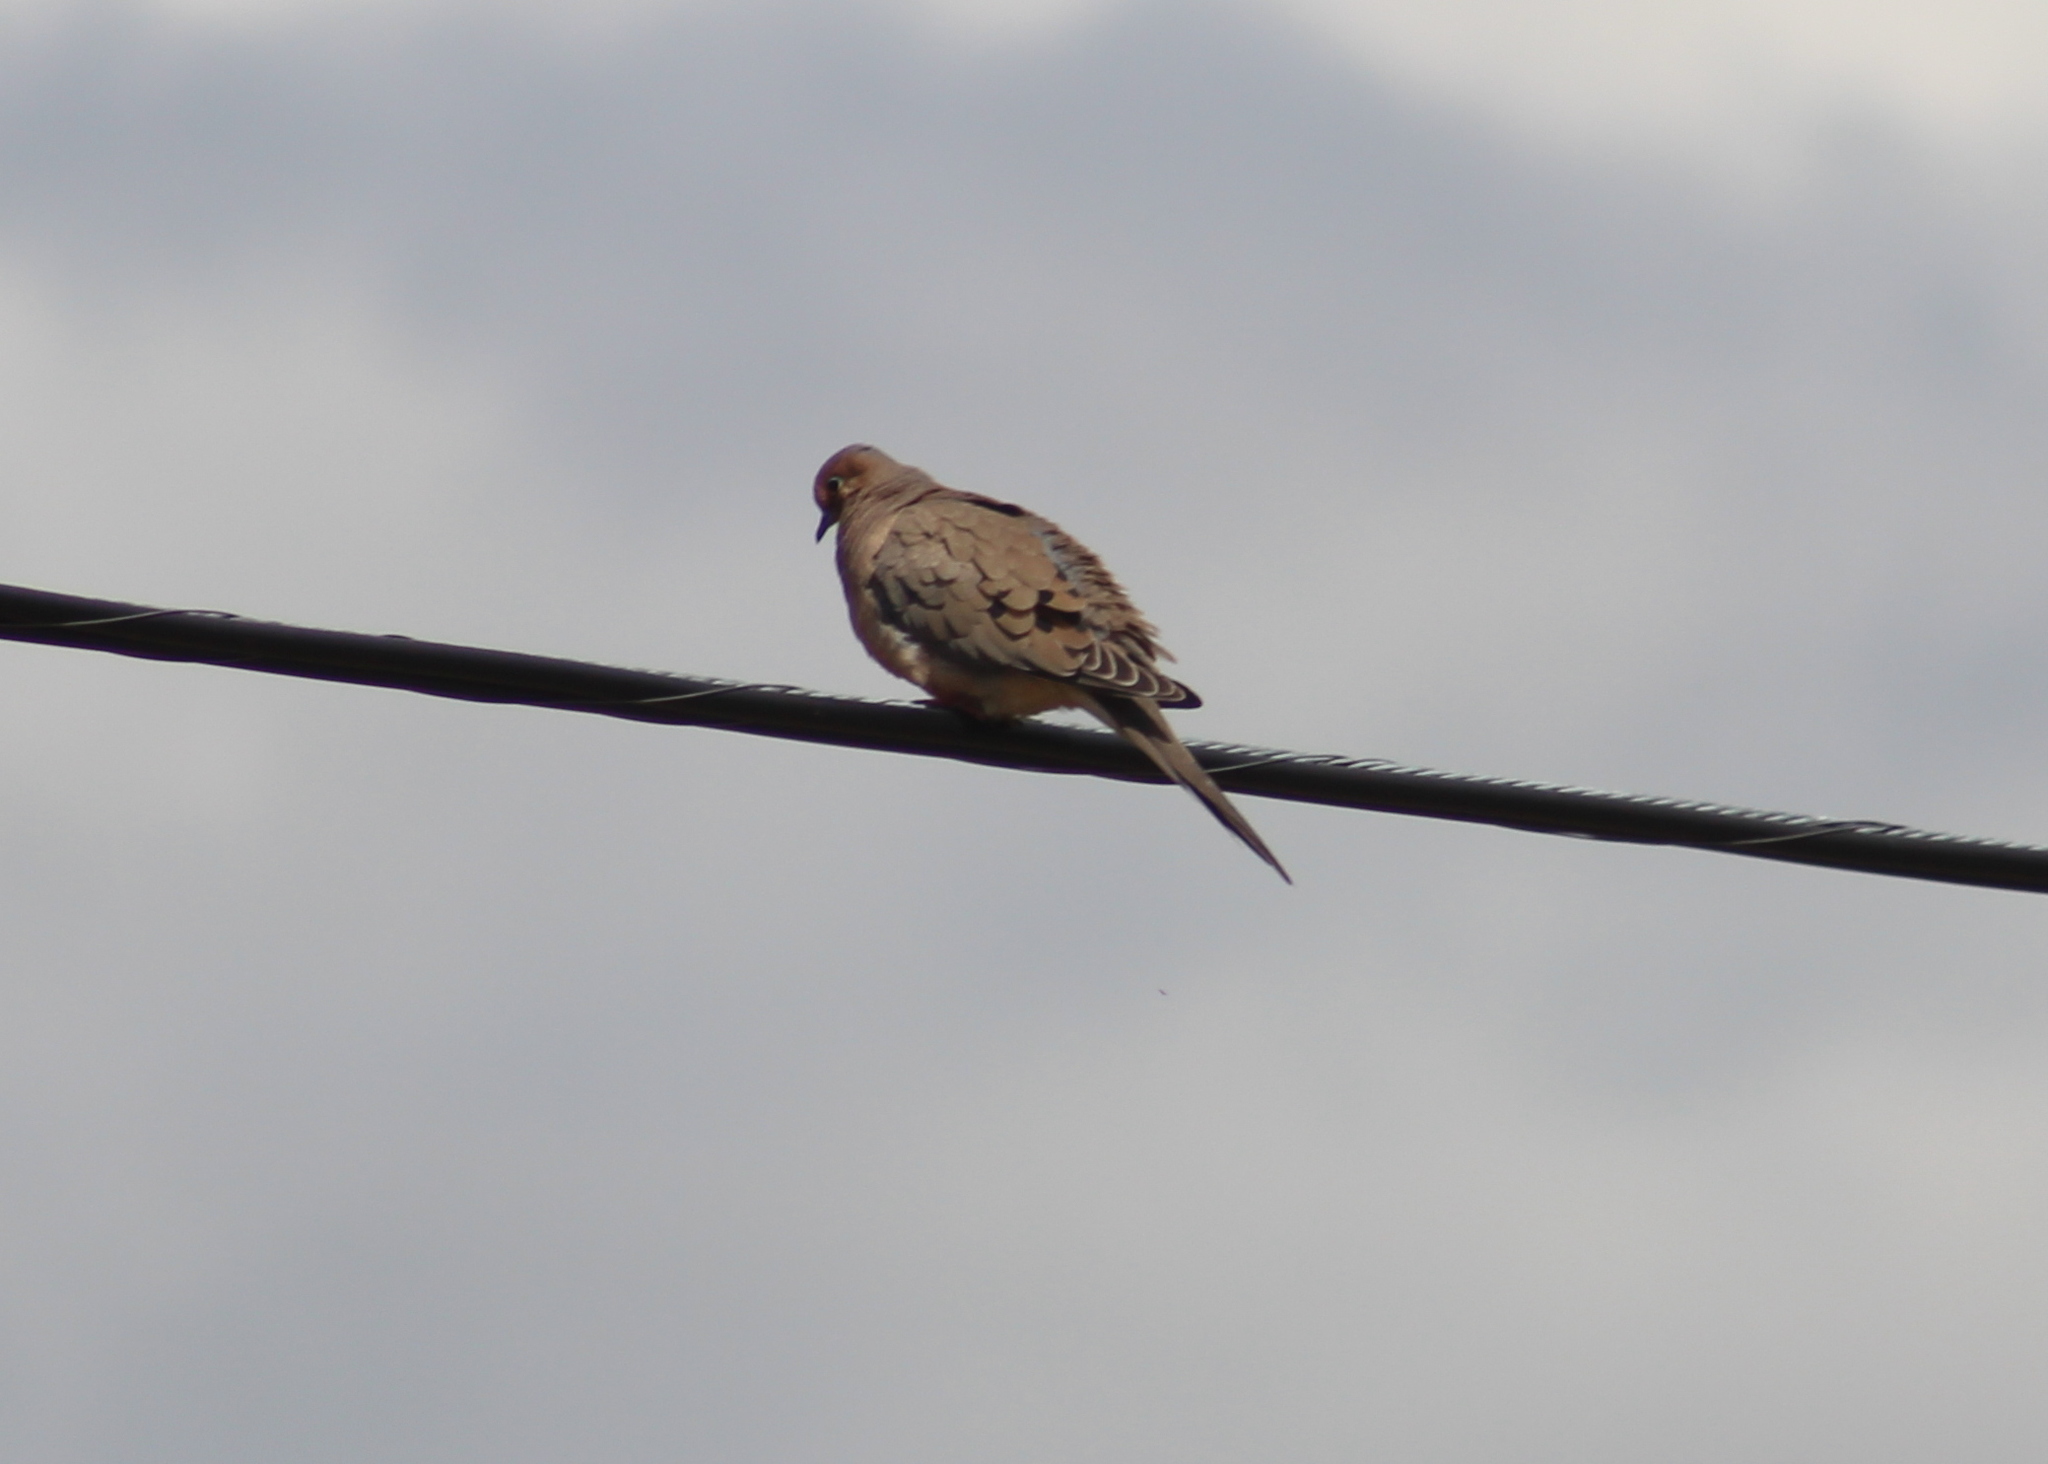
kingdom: Animalia
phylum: Chordata
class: Aves
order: Columbiformes
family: Columbidae
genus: Zenaida
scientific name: Zenaida macroura
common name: Mourning dove
